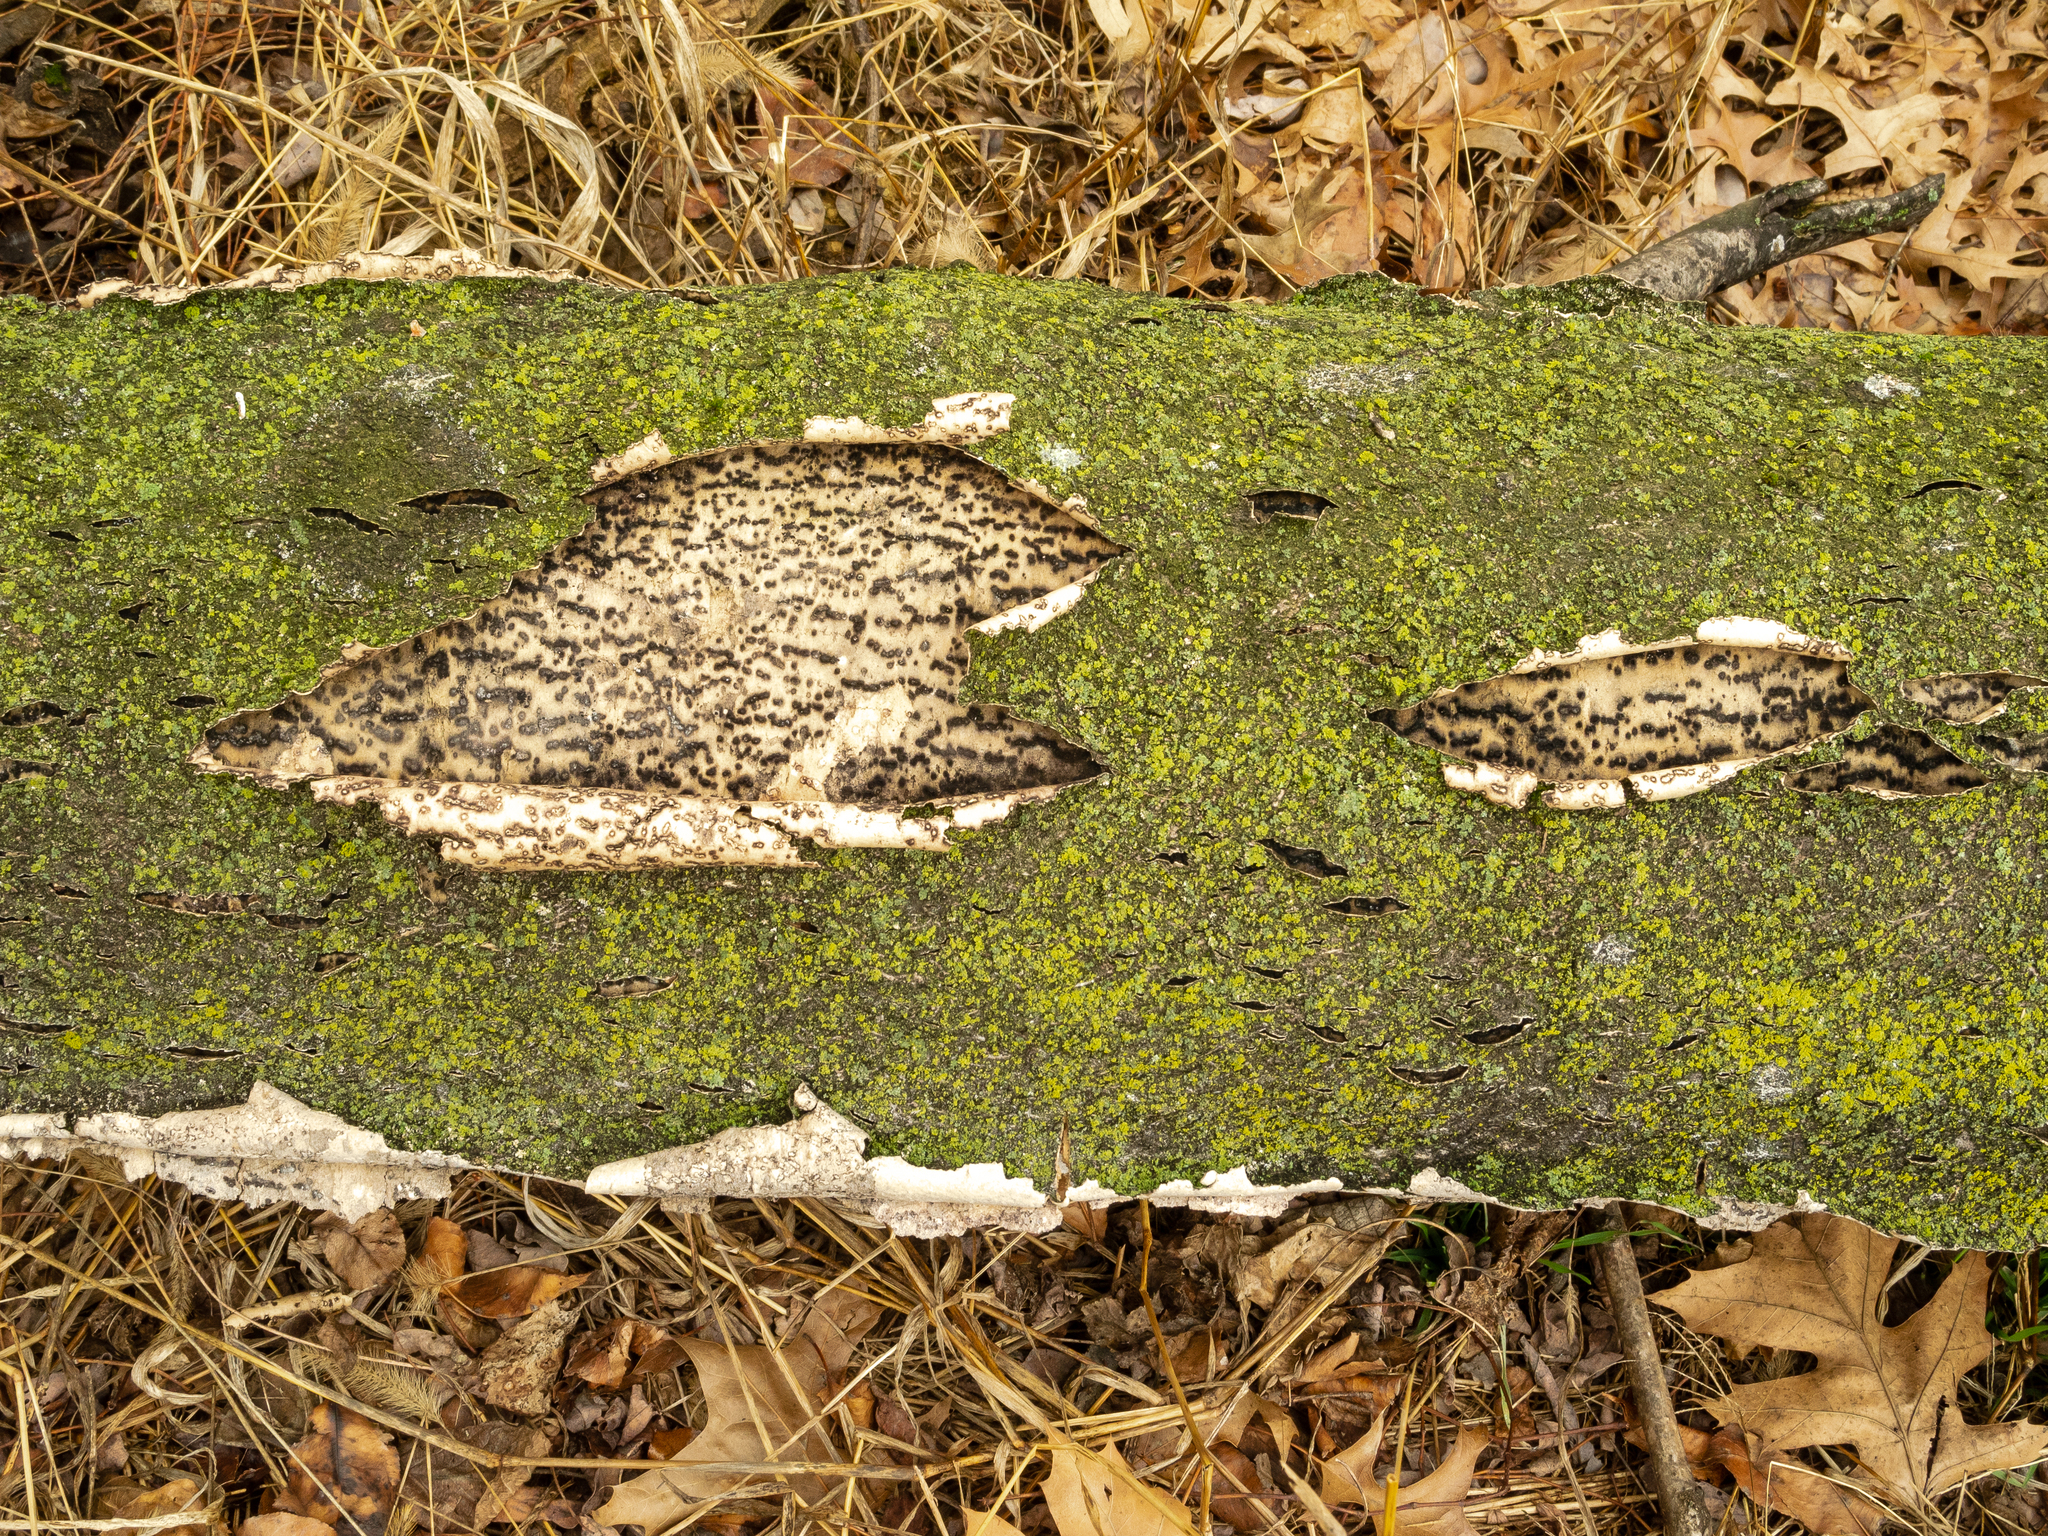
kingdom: Plantae
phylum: Tracheophyta
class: Magnoliopsida
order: Sapindales
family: Simaroubaceae
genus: Ailanthus
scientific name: Ailanthus altissima
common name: Tree-of-heaven
